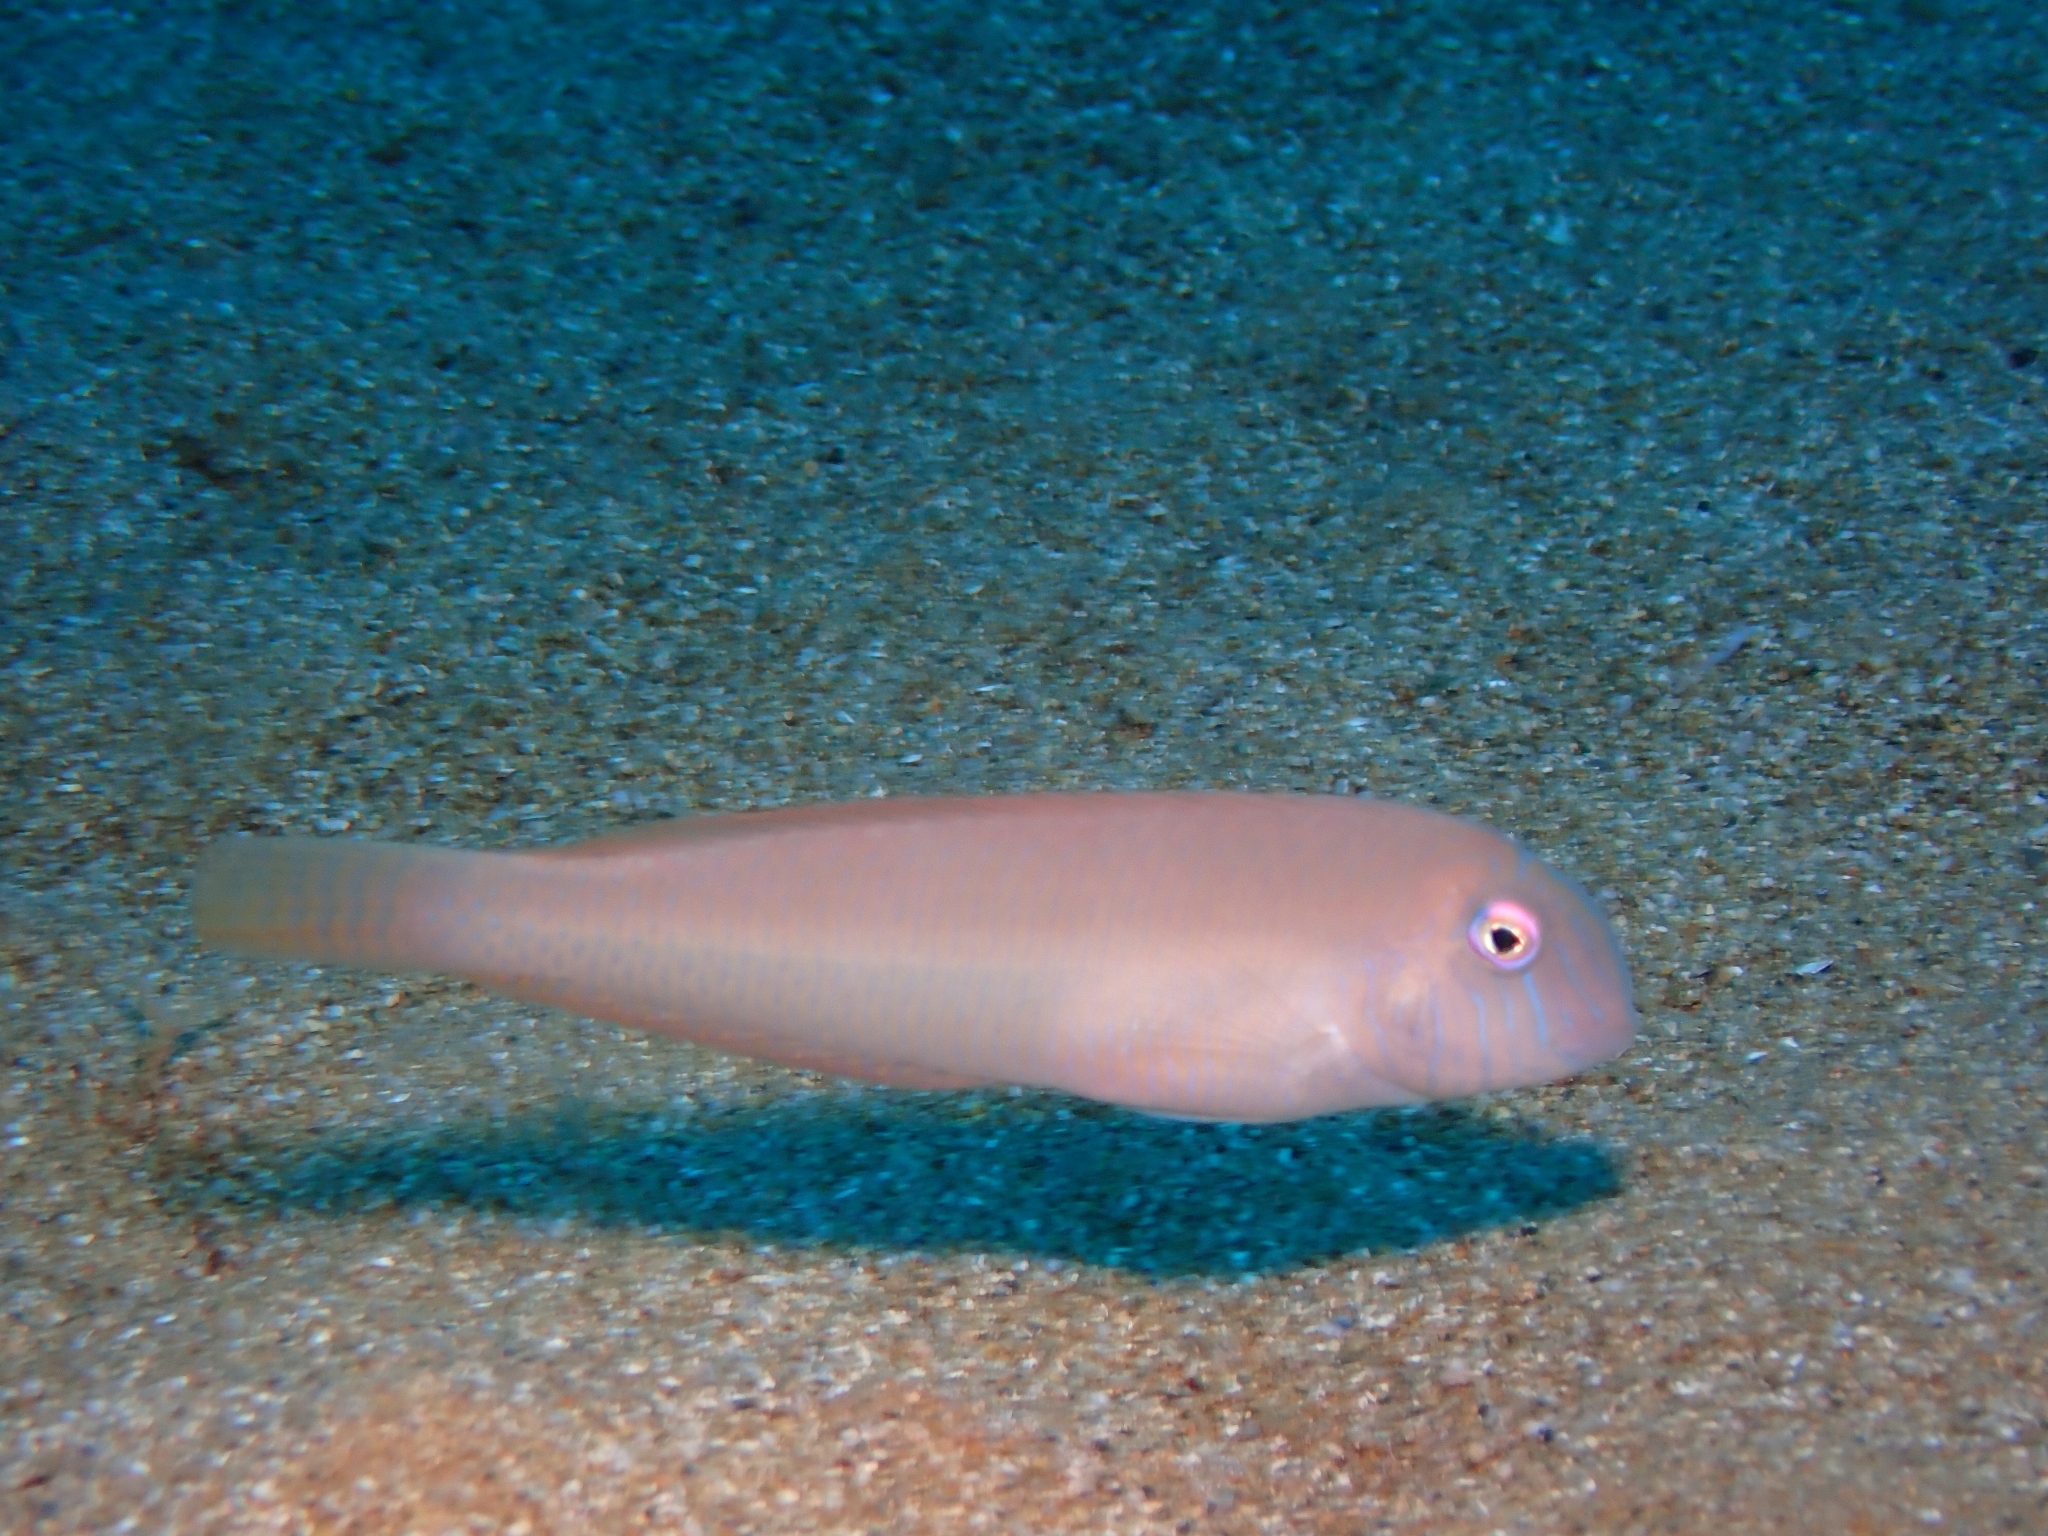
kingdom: Animalia
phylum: Chordata
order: Perciformes
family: Labridae
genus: Xyrichtys
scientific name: Xyrichtys novacula
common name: Pearly razorfish
